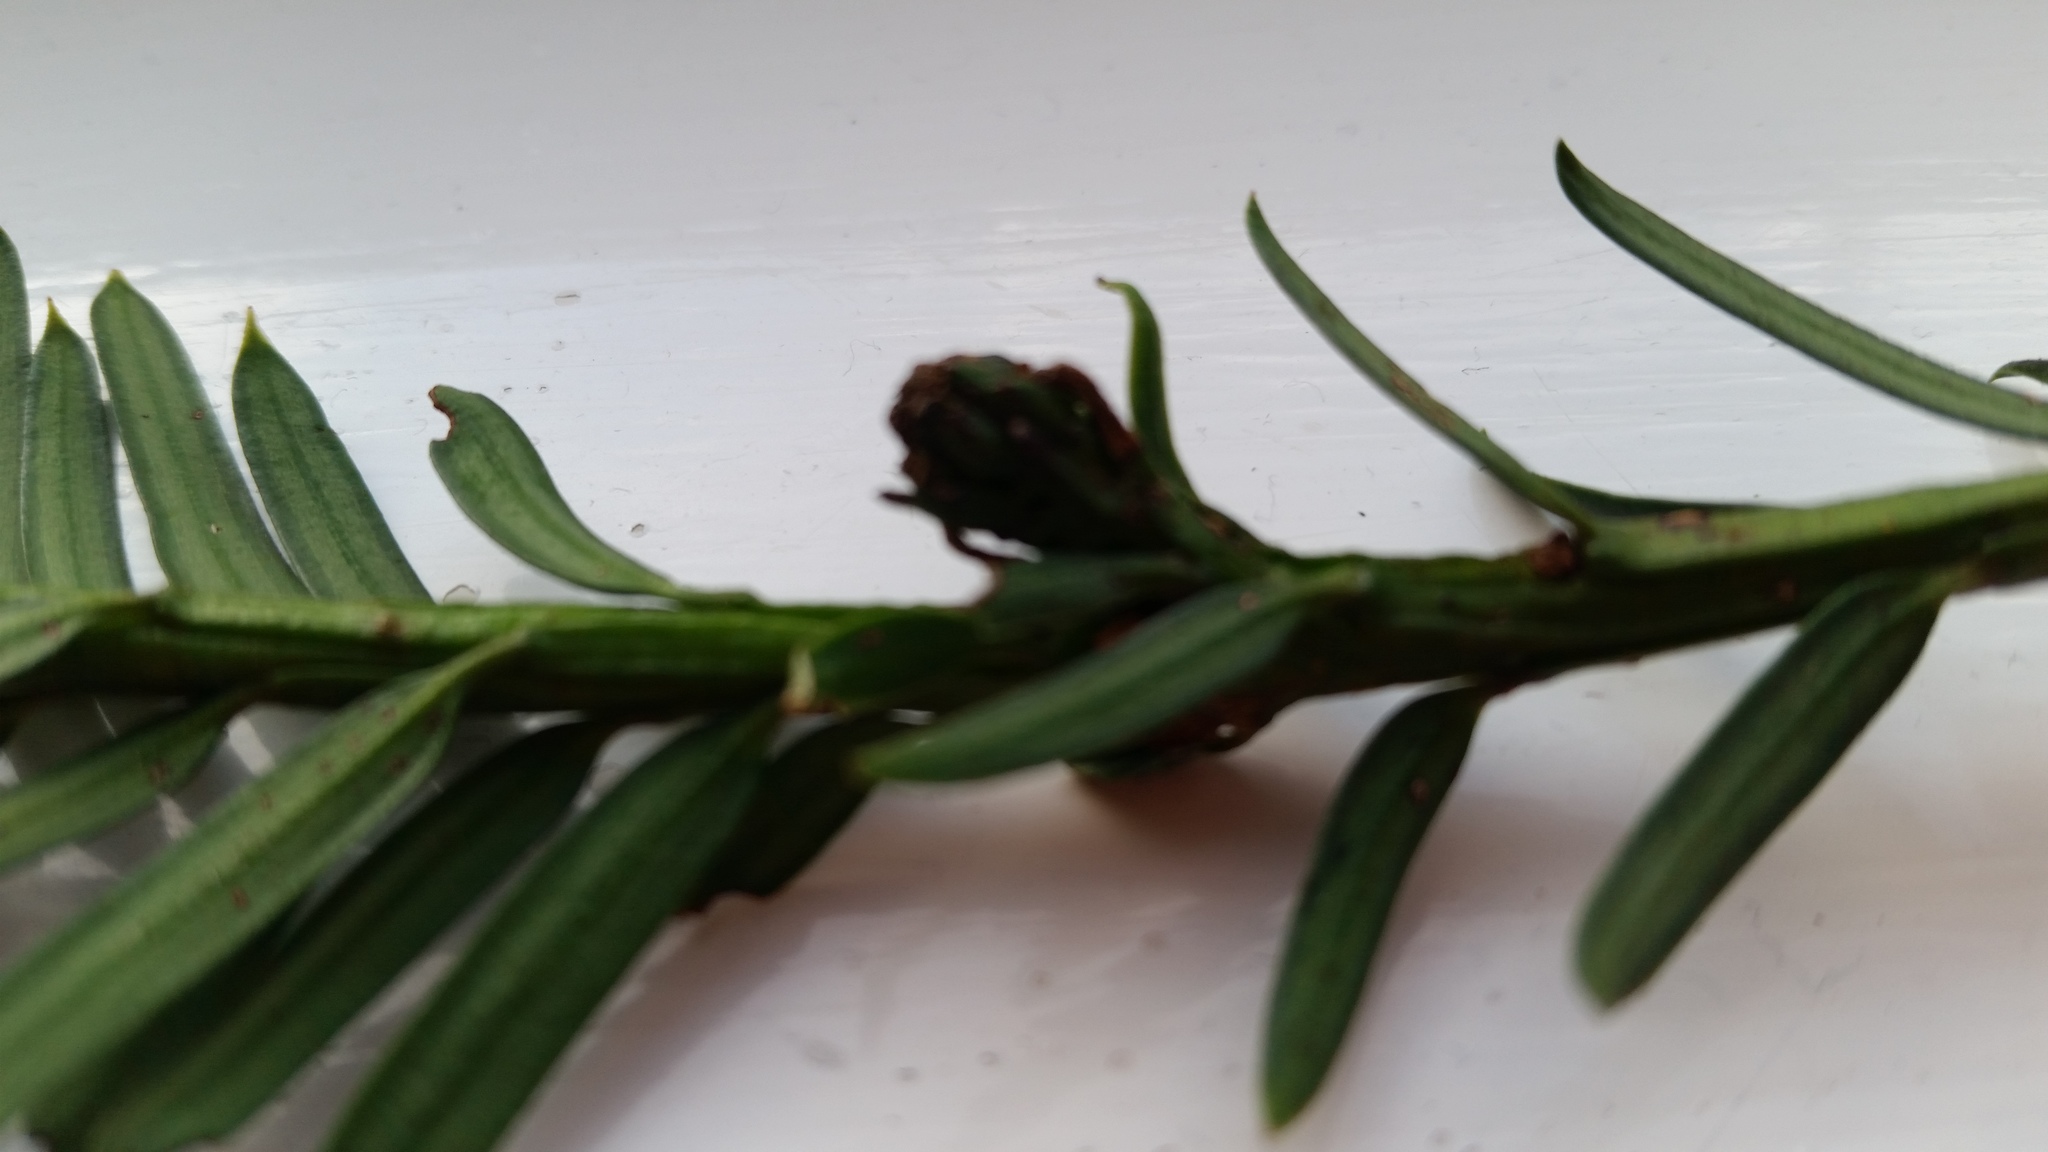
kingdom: Animalia
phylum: Arthropoda
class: Arachnida
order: Trombidiformes
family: Eriophyidae
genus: Cecidophyopsis
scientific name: Cecidophyopsis psilaspis
